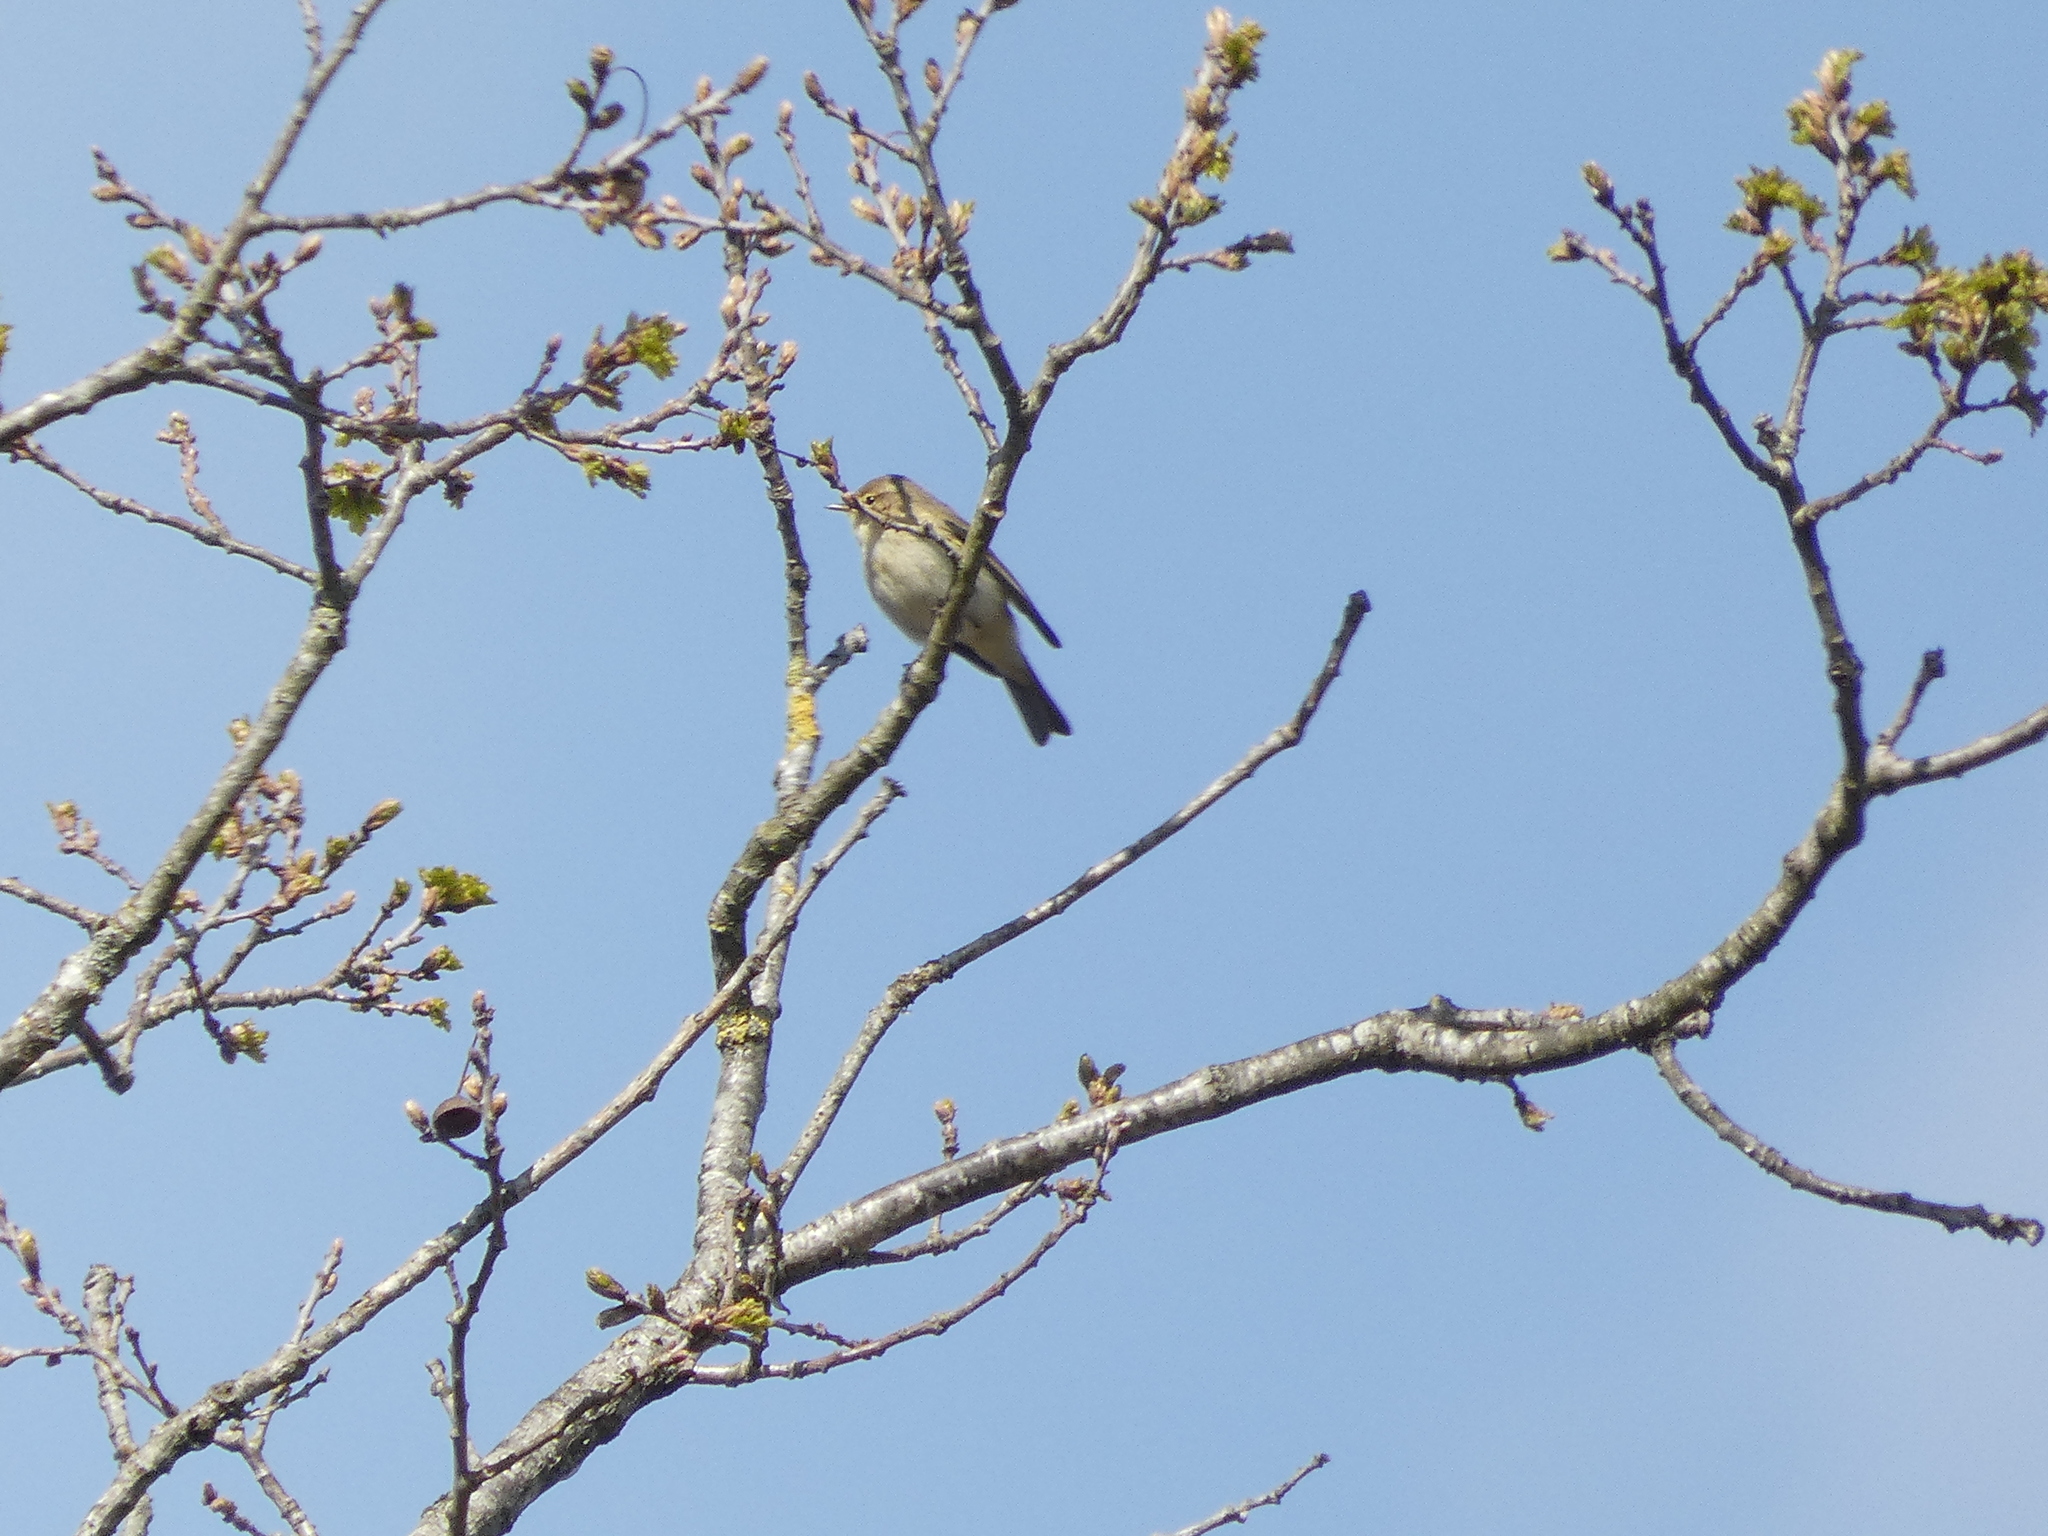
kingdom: Animalia
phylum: Chordata
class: Aves
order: Passeriformes
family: Phylloscopidae
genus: Phylloscopus
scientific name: Phylloscopus collybita
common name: Common chiffchaff
